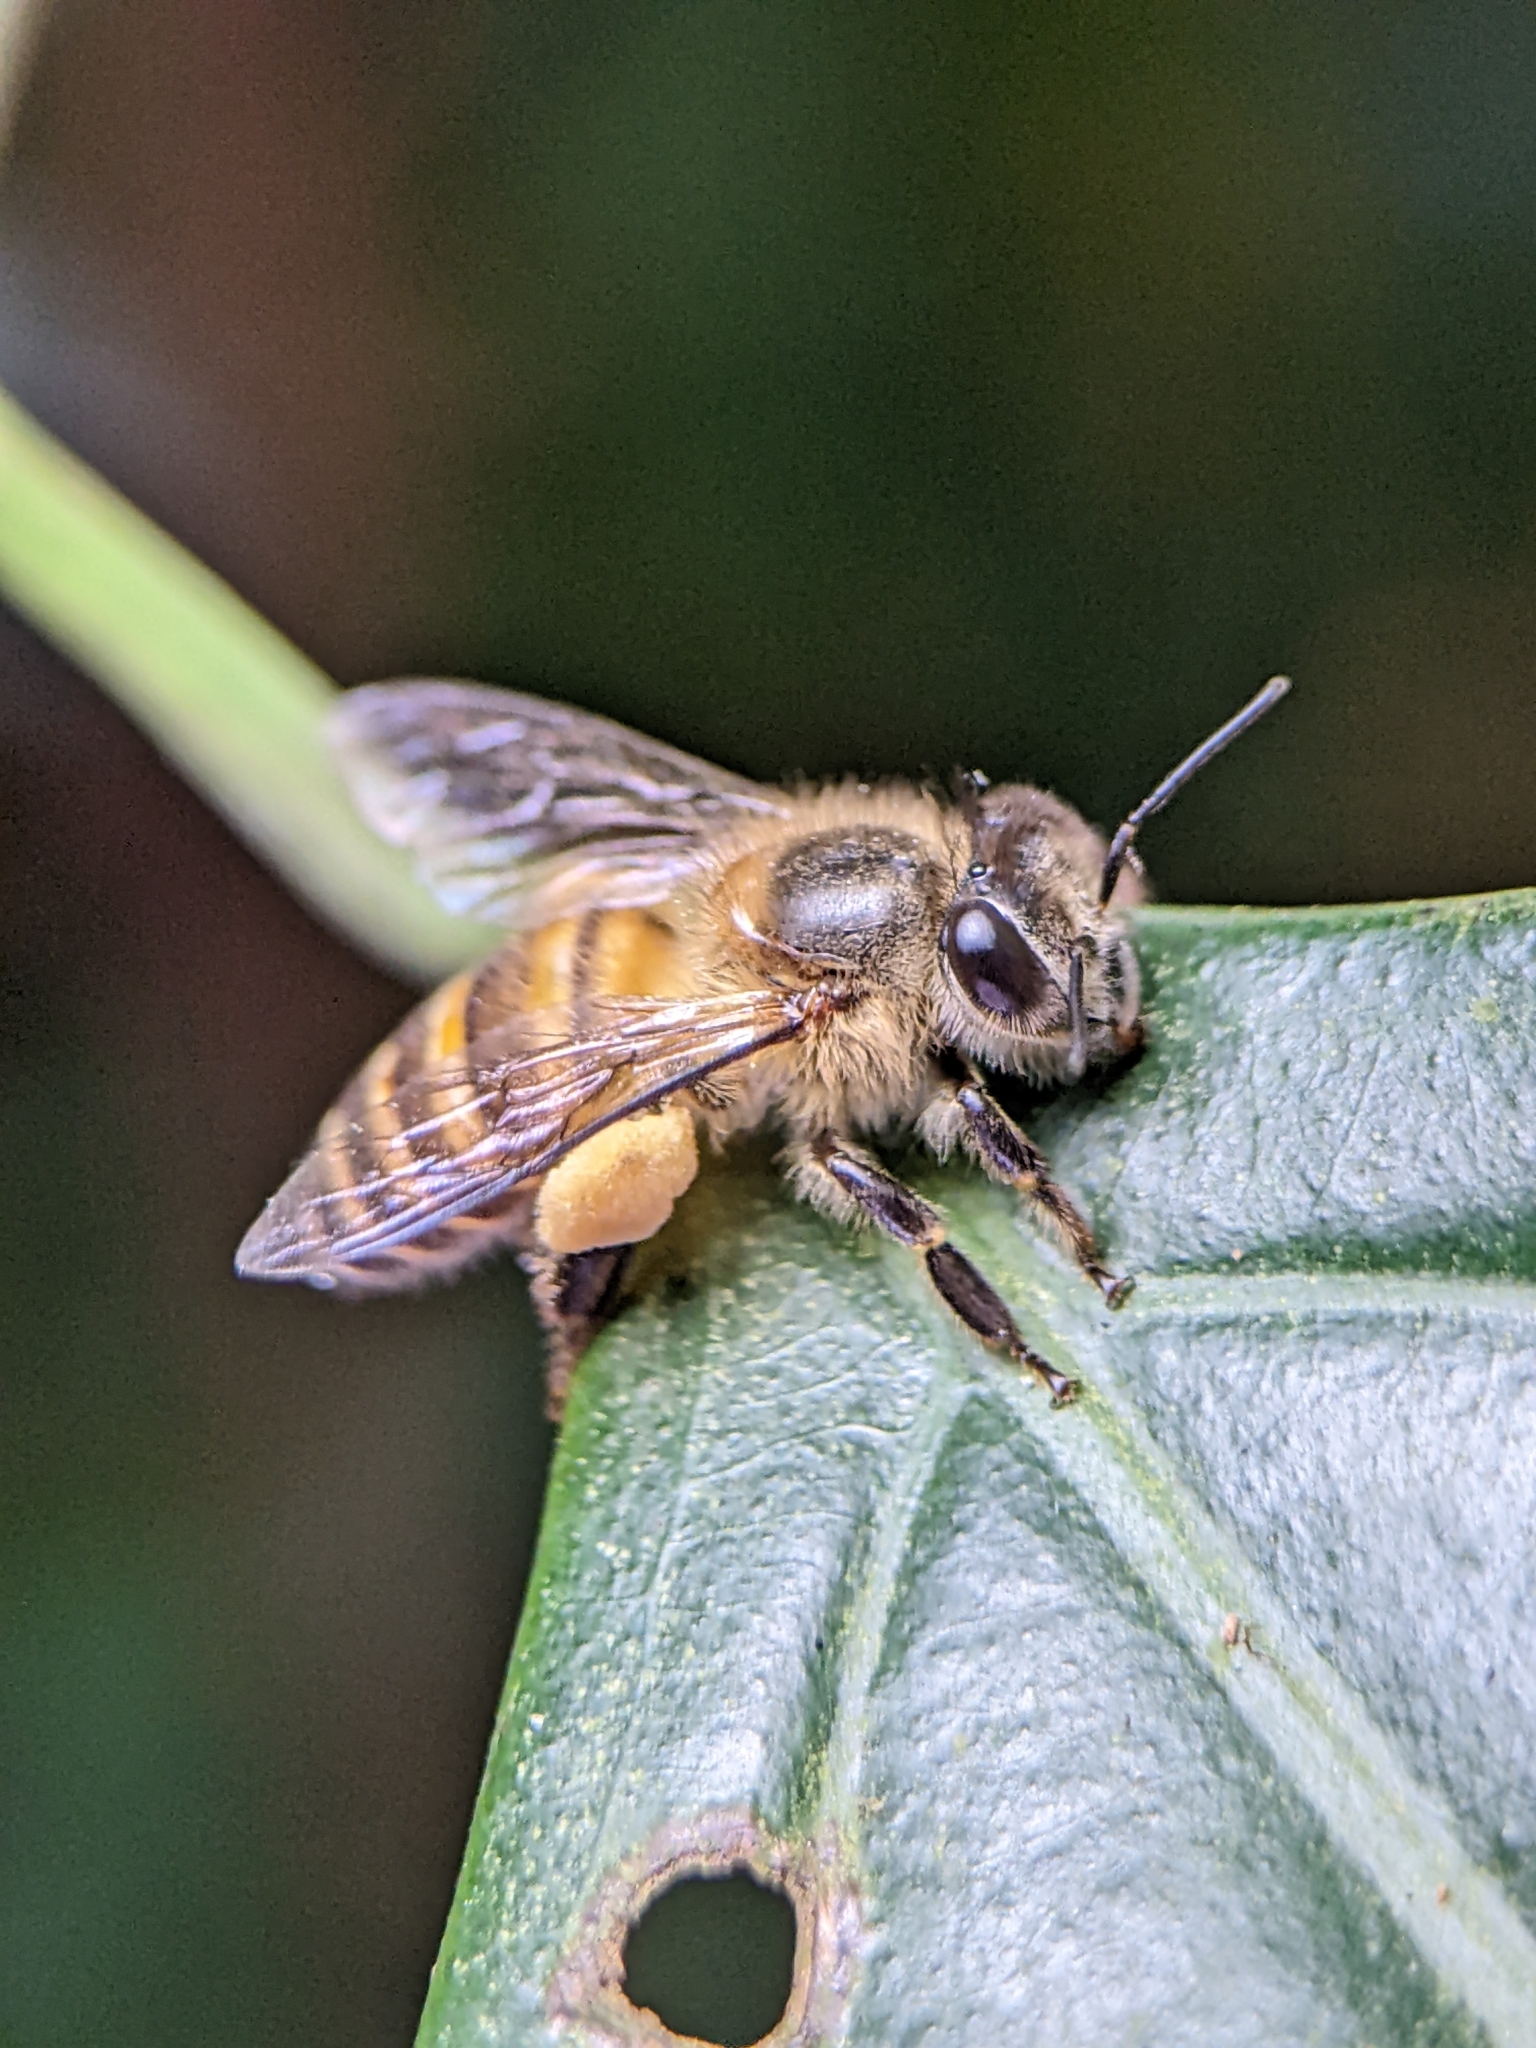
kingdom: Animalia
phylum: Arthropoda
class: Insecta
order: Hymenoptera
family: Apidae
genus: Apis
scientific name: Apis cerana
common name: Honey bee
